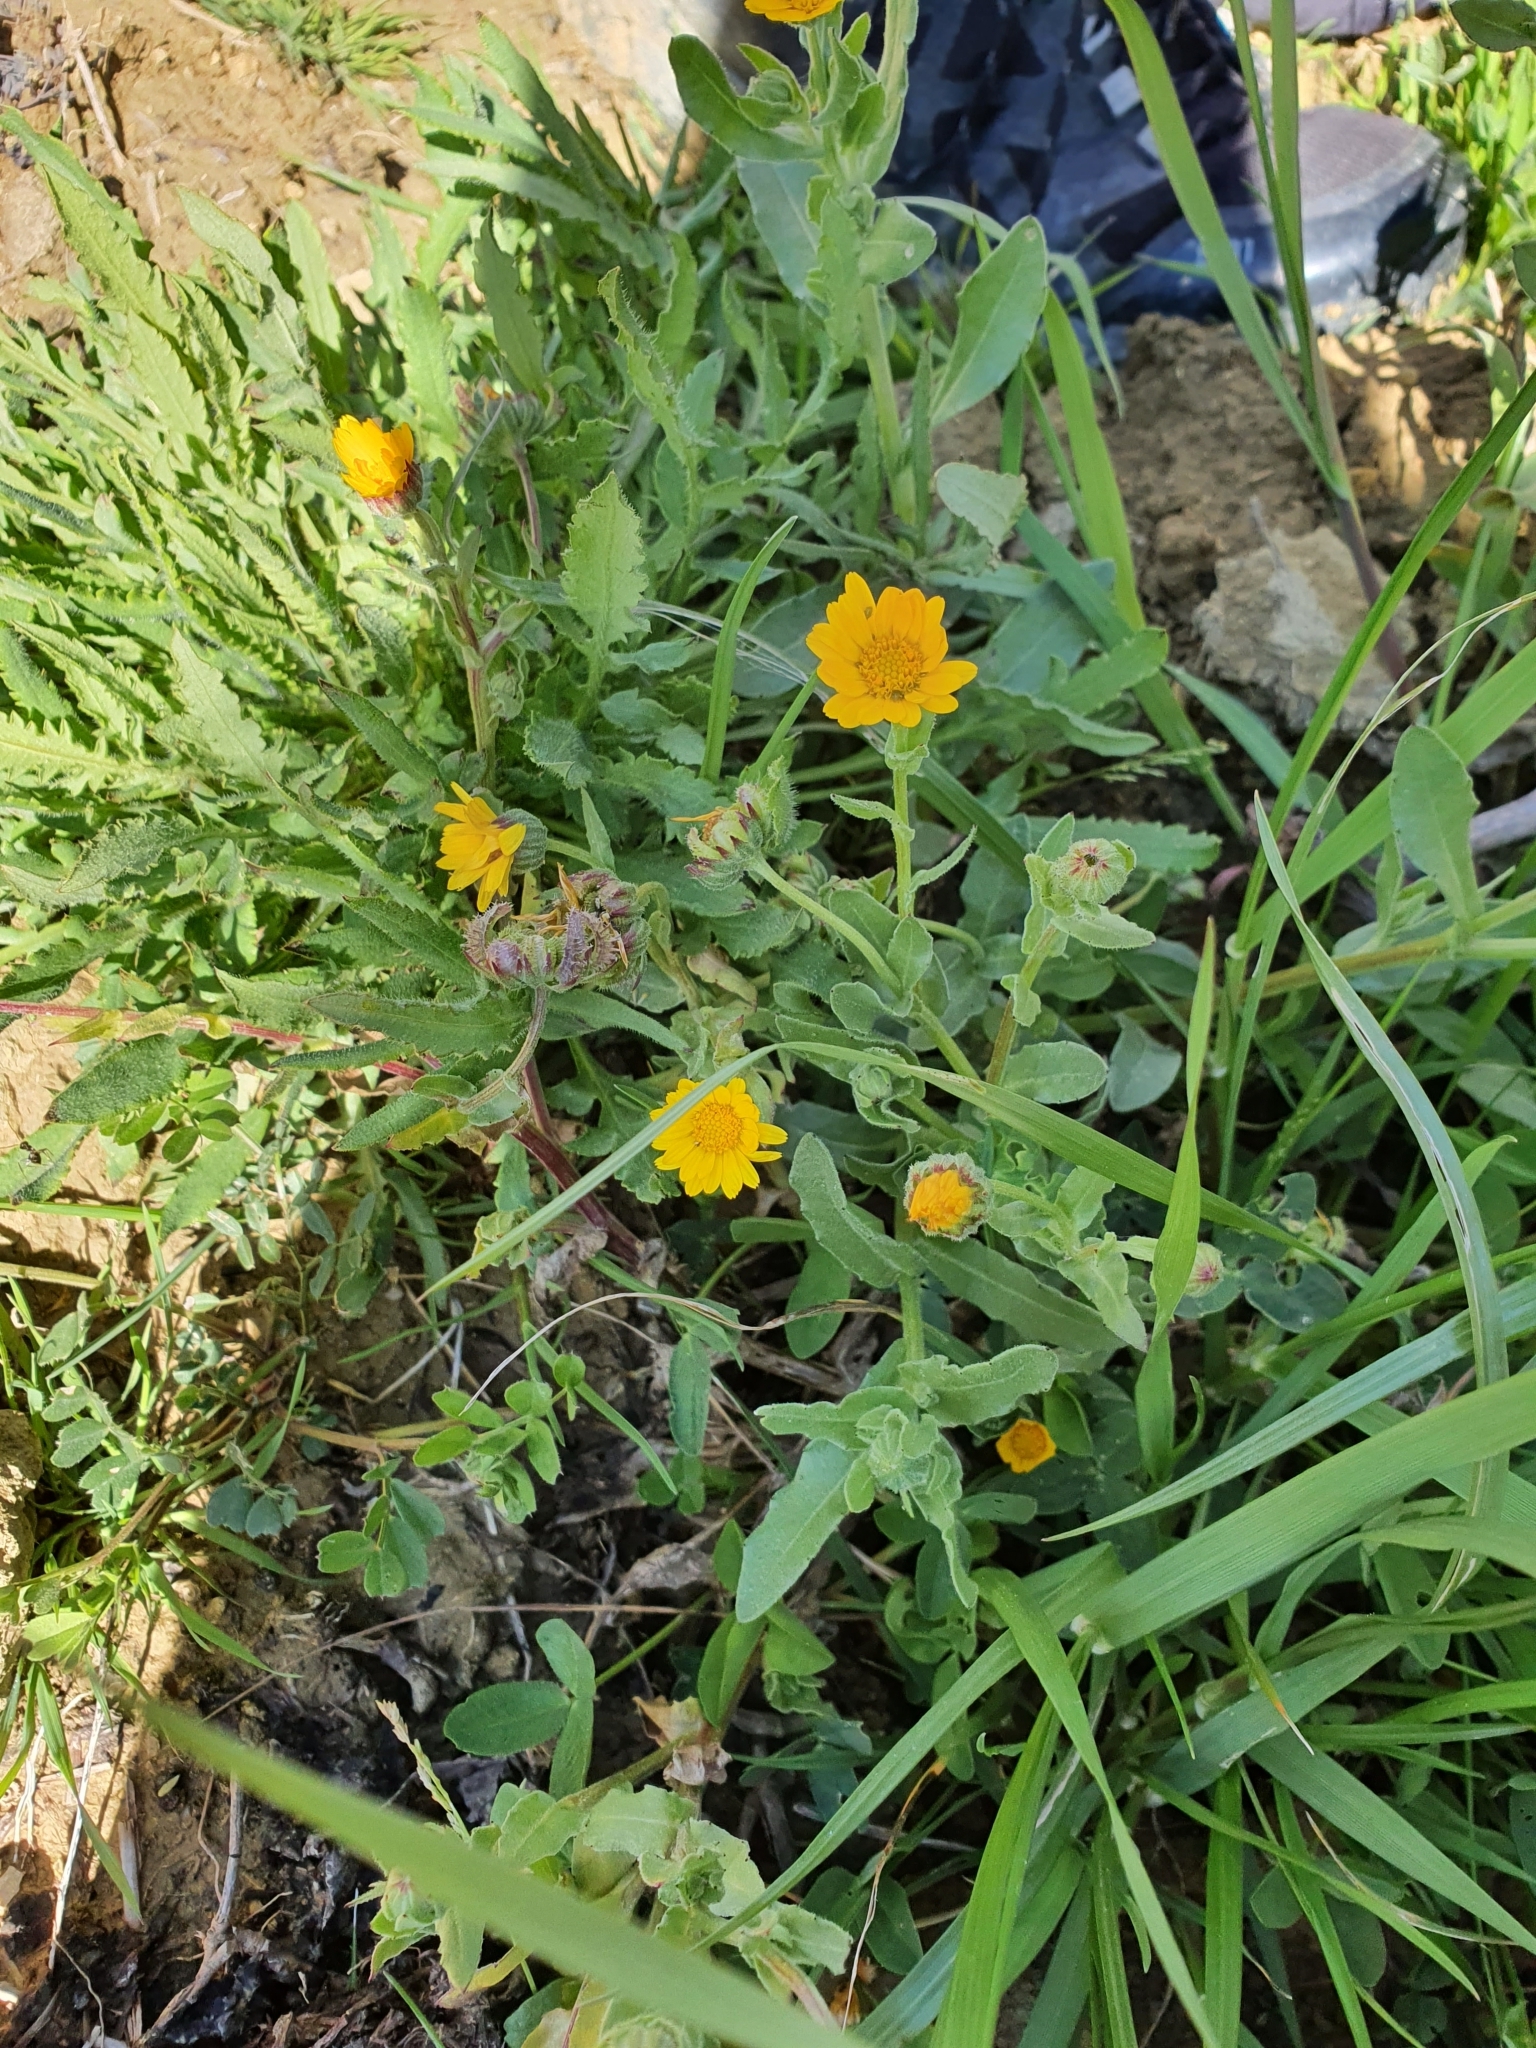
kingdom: Plantae
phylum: Tracheophyta
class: Magnoliopsida
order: Asterales
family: Asteraceae
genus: Calendula
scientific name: Calendula arvensis
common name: Field marigold
